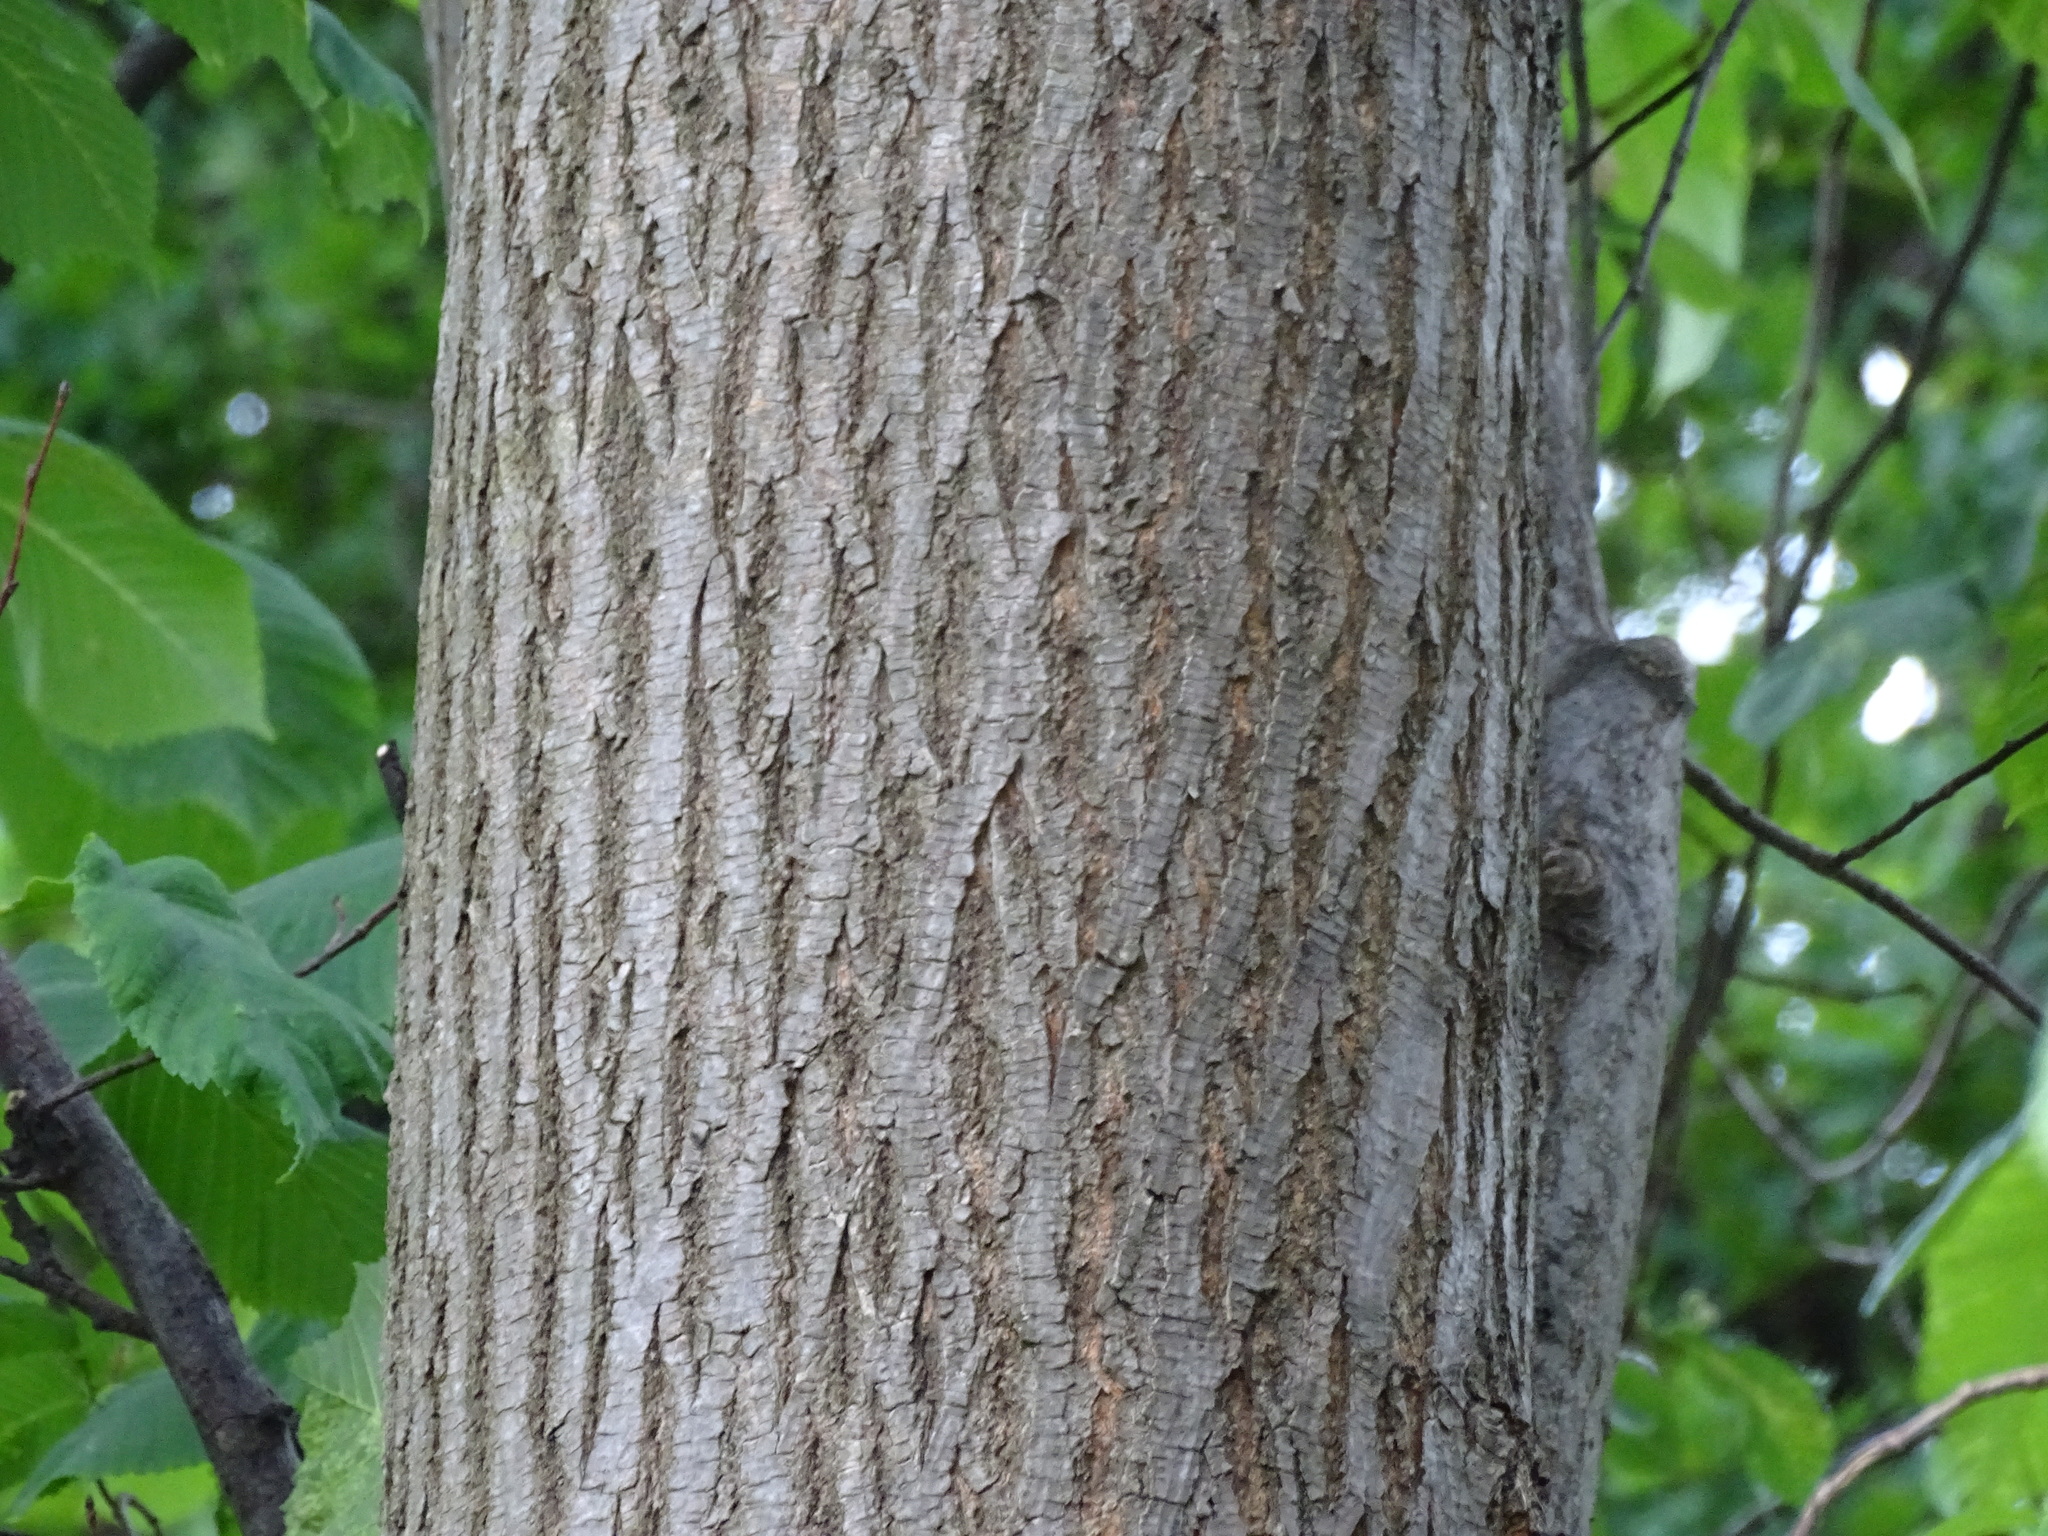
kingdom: Plantae
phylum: Tracheophyta
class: Magnoliopsida
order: Rosales
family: Ulmaceae
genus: Ulmus
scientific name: Ulmus glabra
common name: Wych elm
